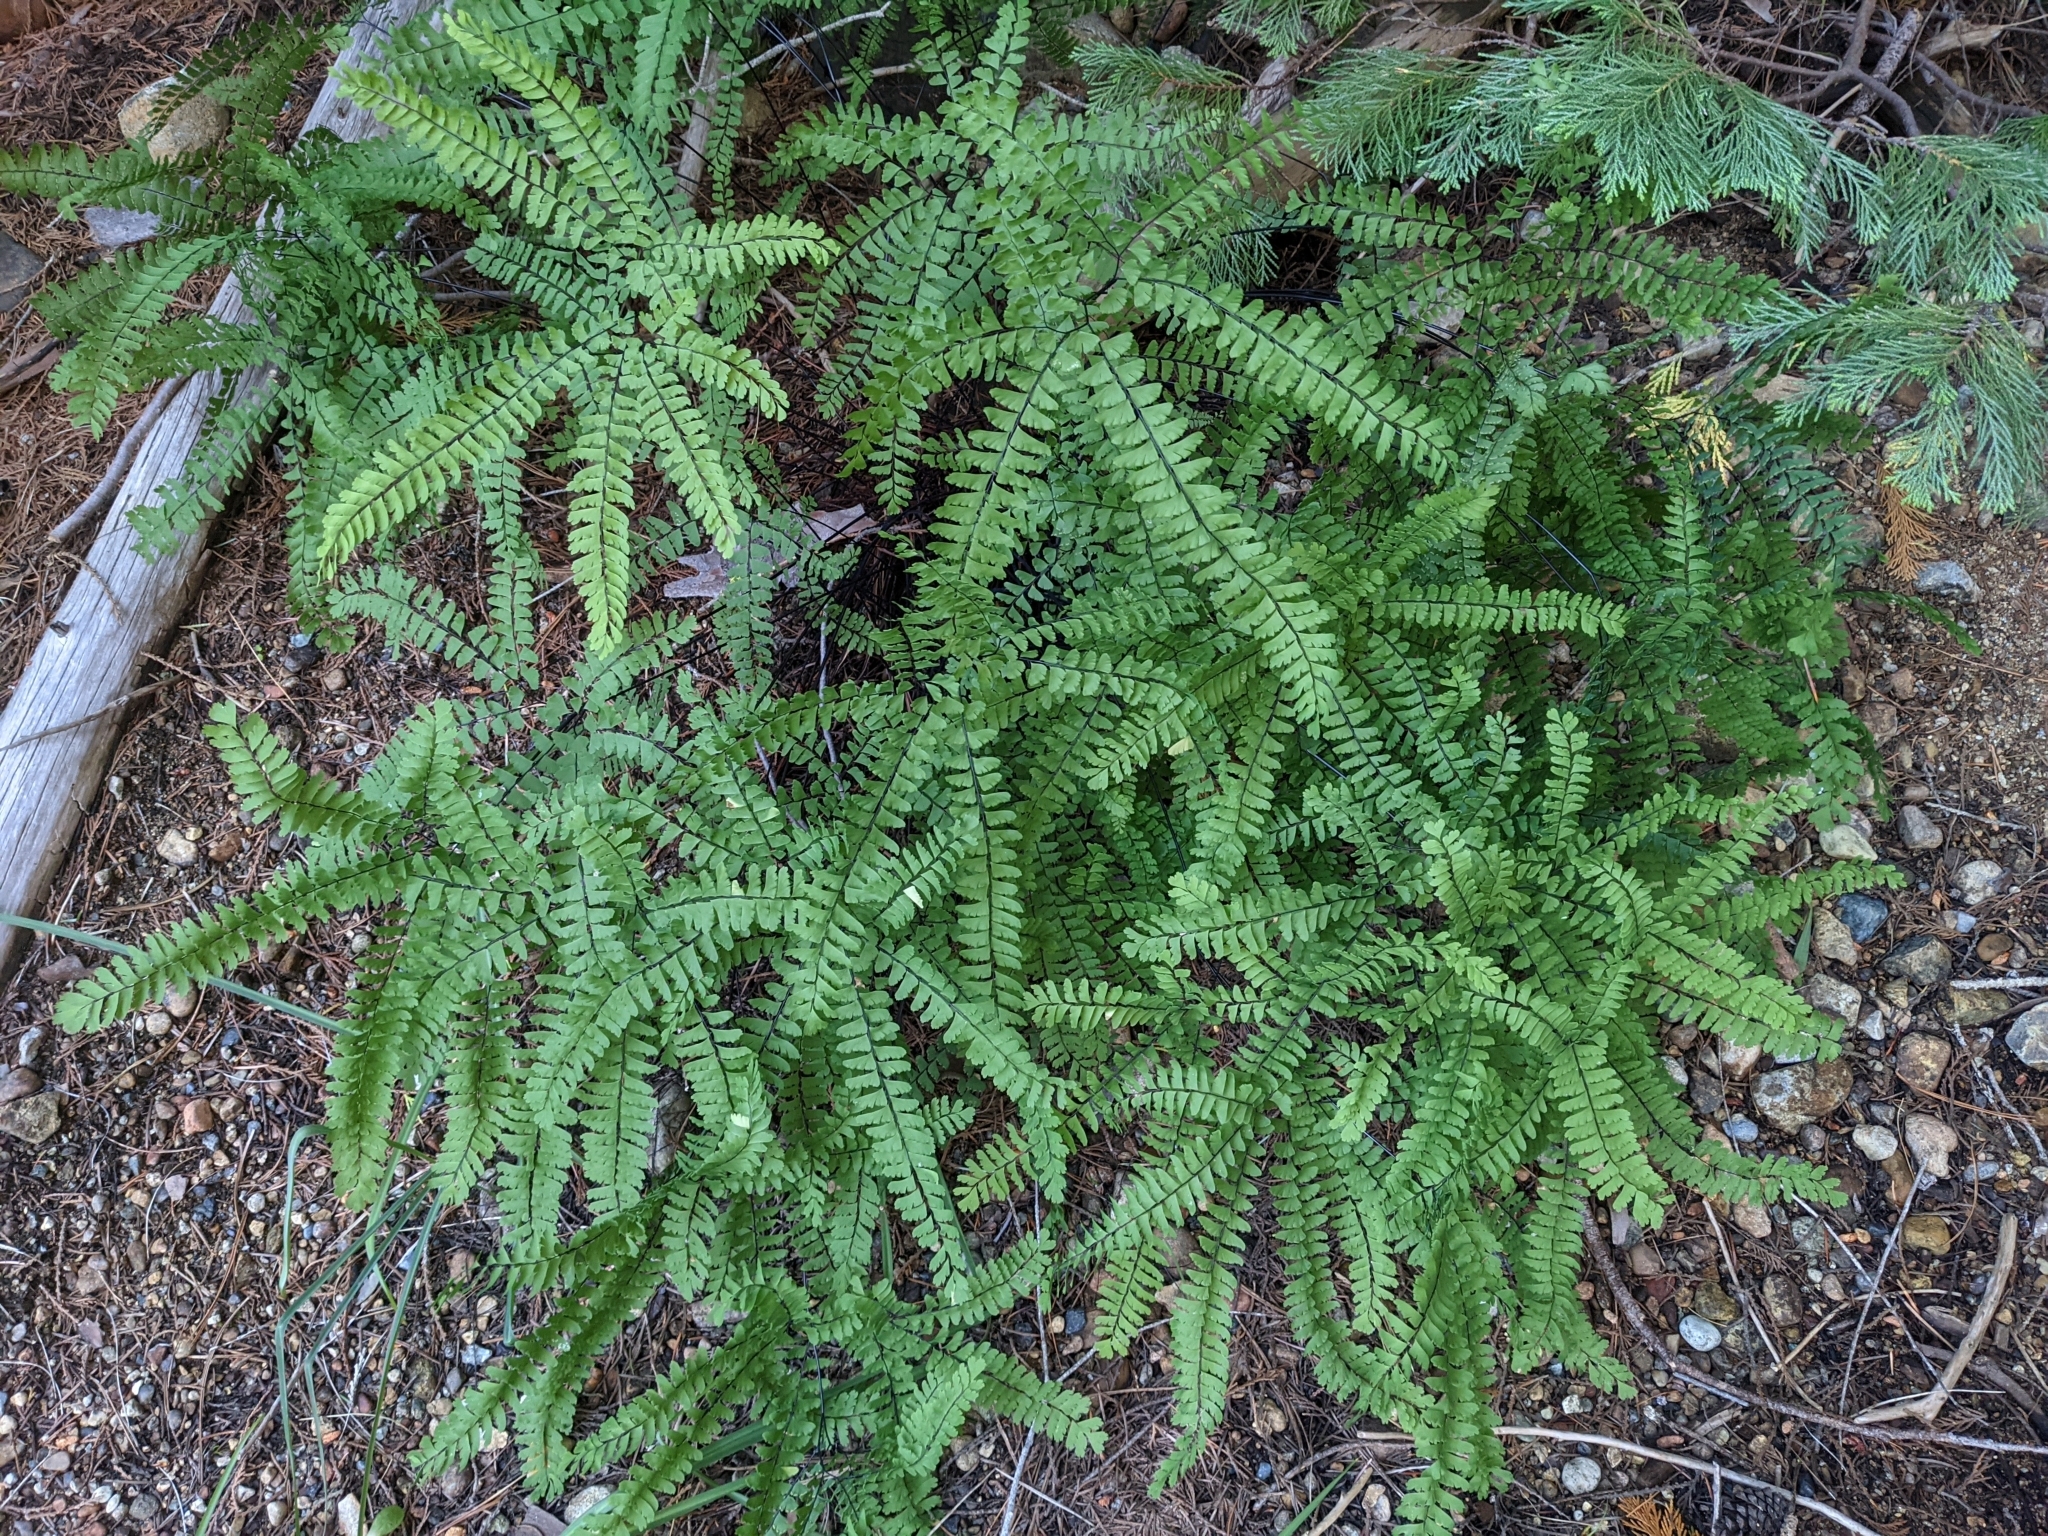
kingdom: Plantae
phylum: Tracheophyta
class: Polypodiopsida
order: Polypodiales
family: Pteridaceae
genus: Adiantum
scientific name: Adiantum aleuticum
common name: Aleutian maidenhair fern
